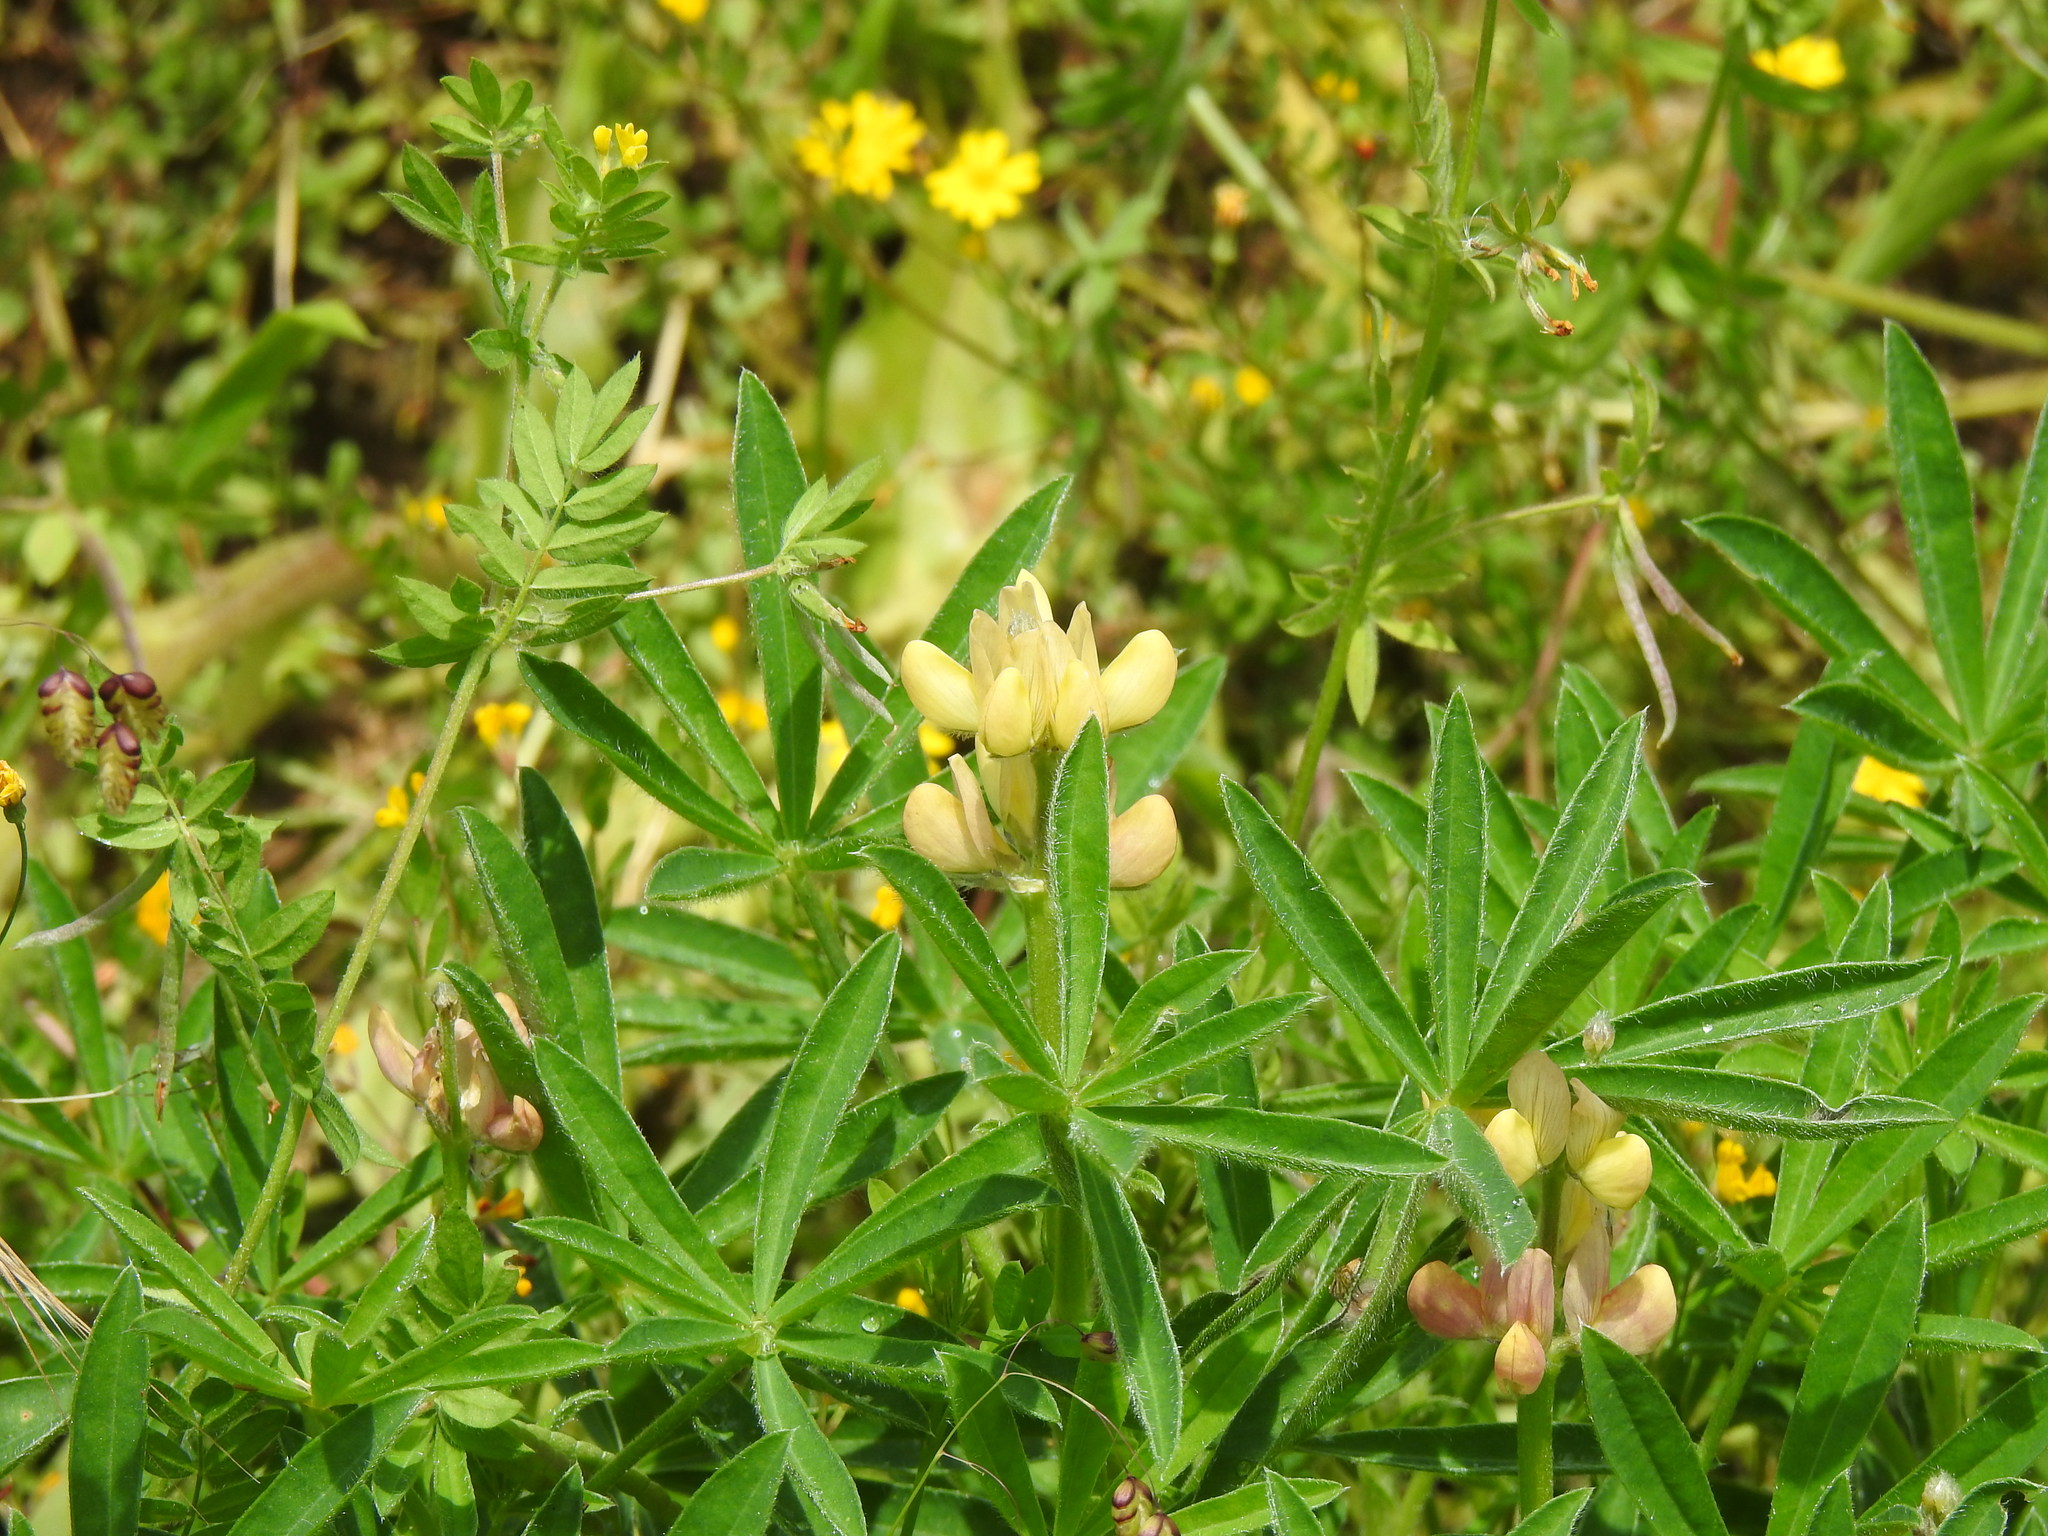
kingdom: Plantae
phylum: Tracheophyta
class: Magnoliopsida
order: Fabales
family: Fabaceae
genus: Lupinus
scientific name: Lupinus gredensis
